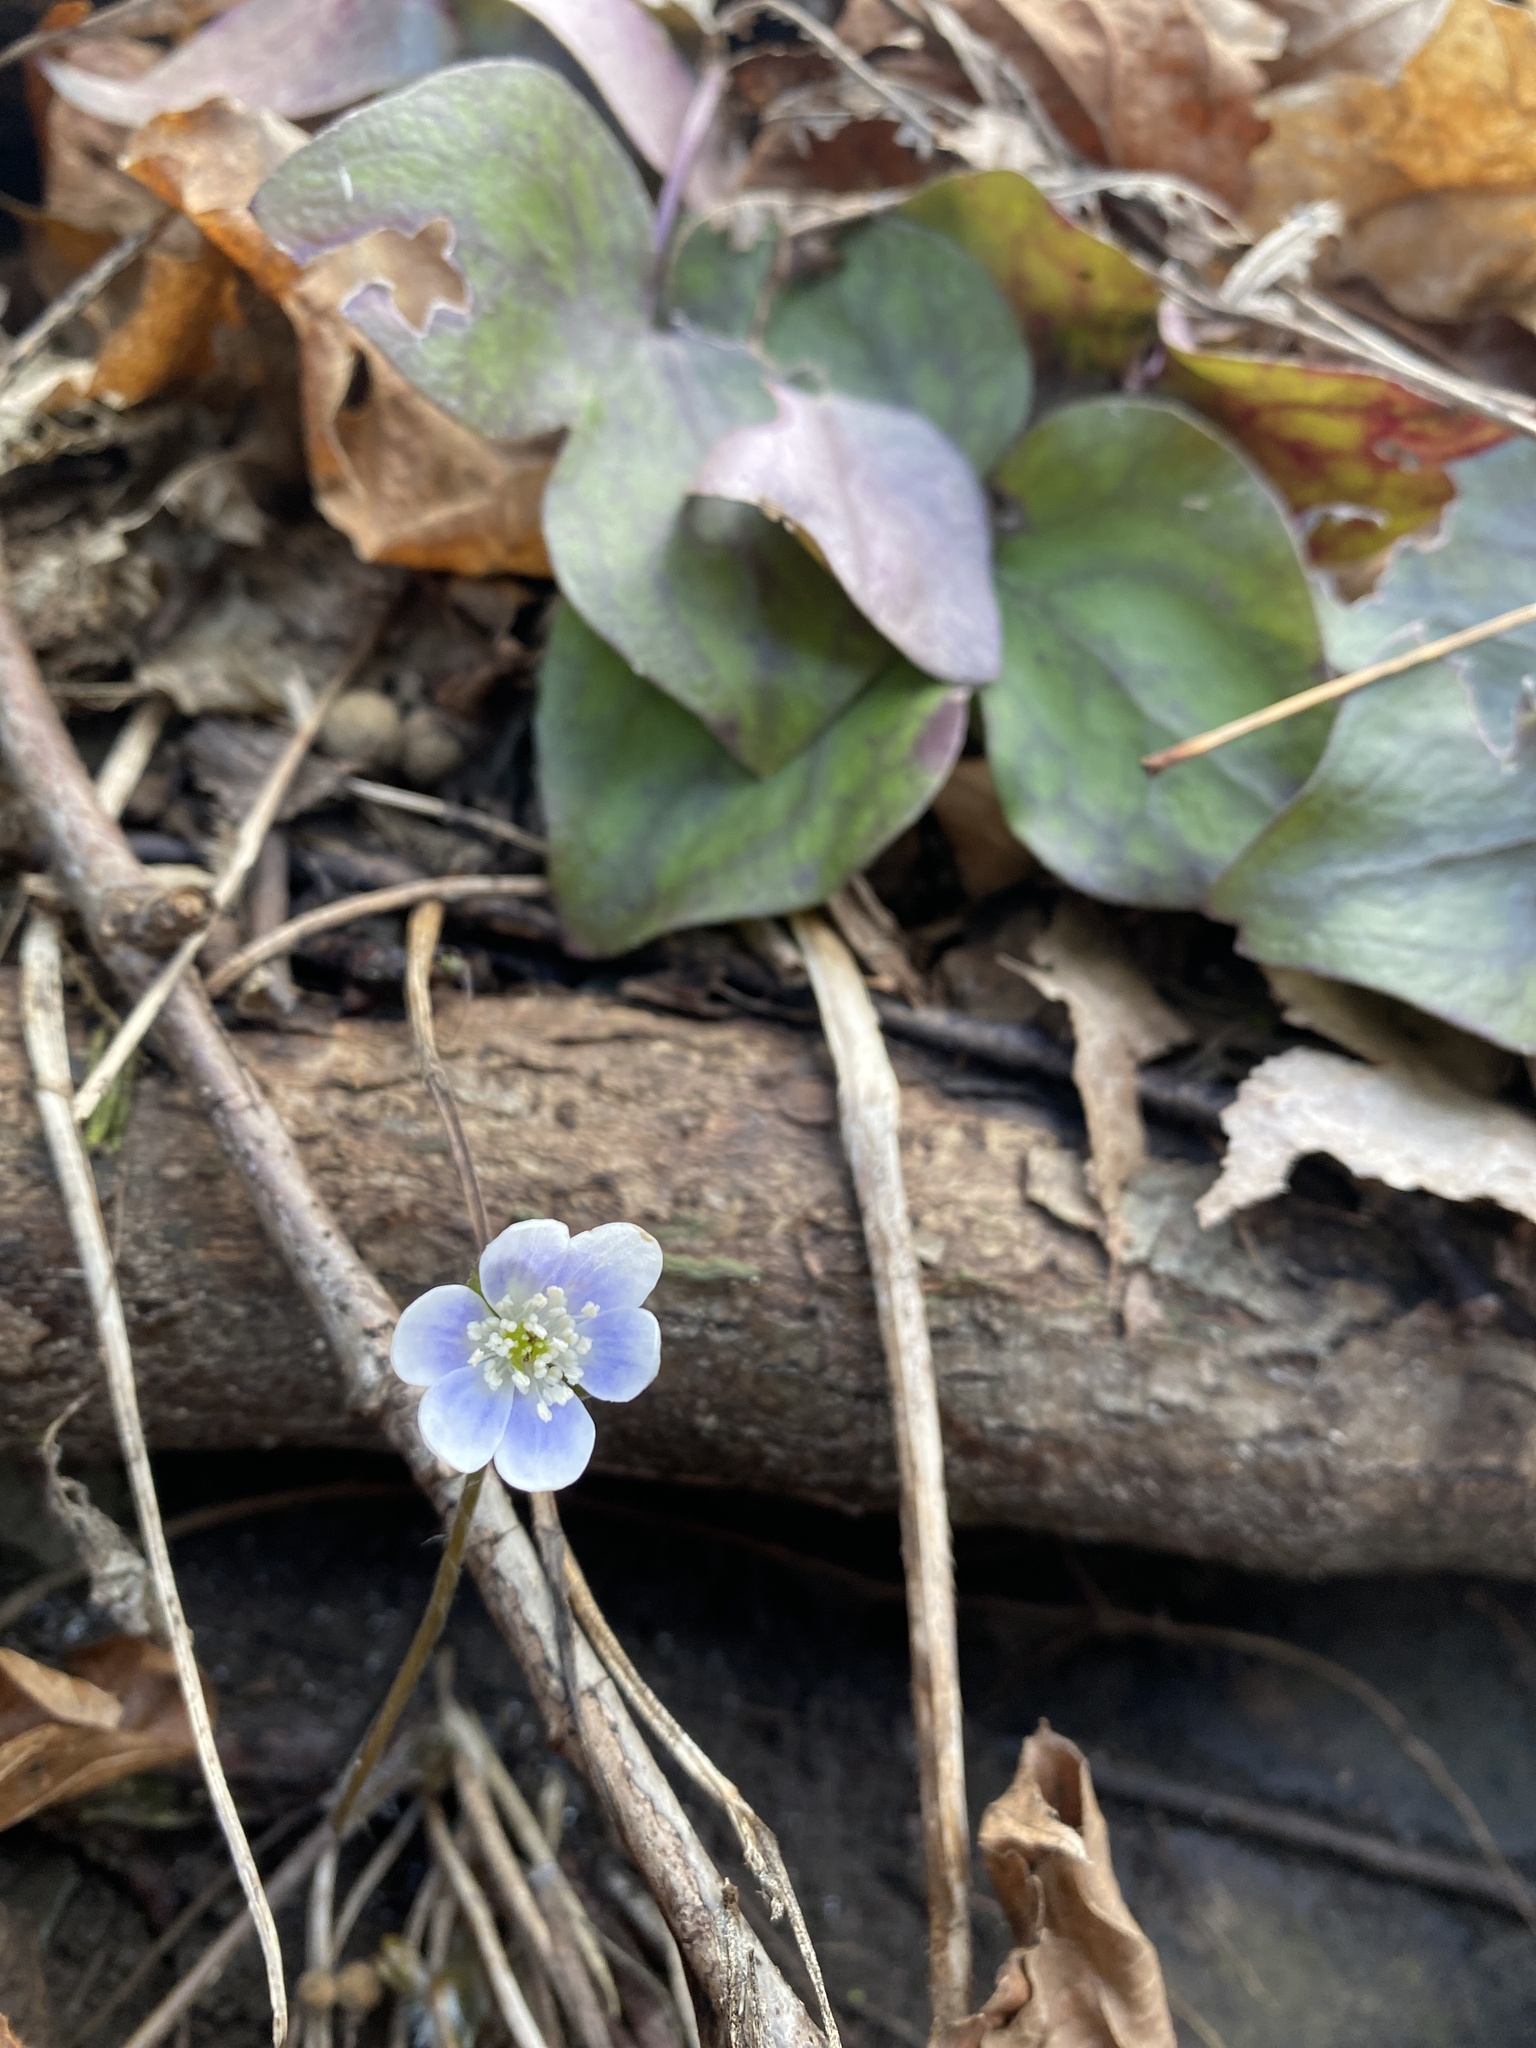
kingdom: Plantae
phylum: Tracheophyta
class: Magnoliopsida
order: Ranunculales
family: Ranunculaceae
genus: Hepatica
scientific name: Hepatica acutiloba
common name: Sharp-lobed hepatica
